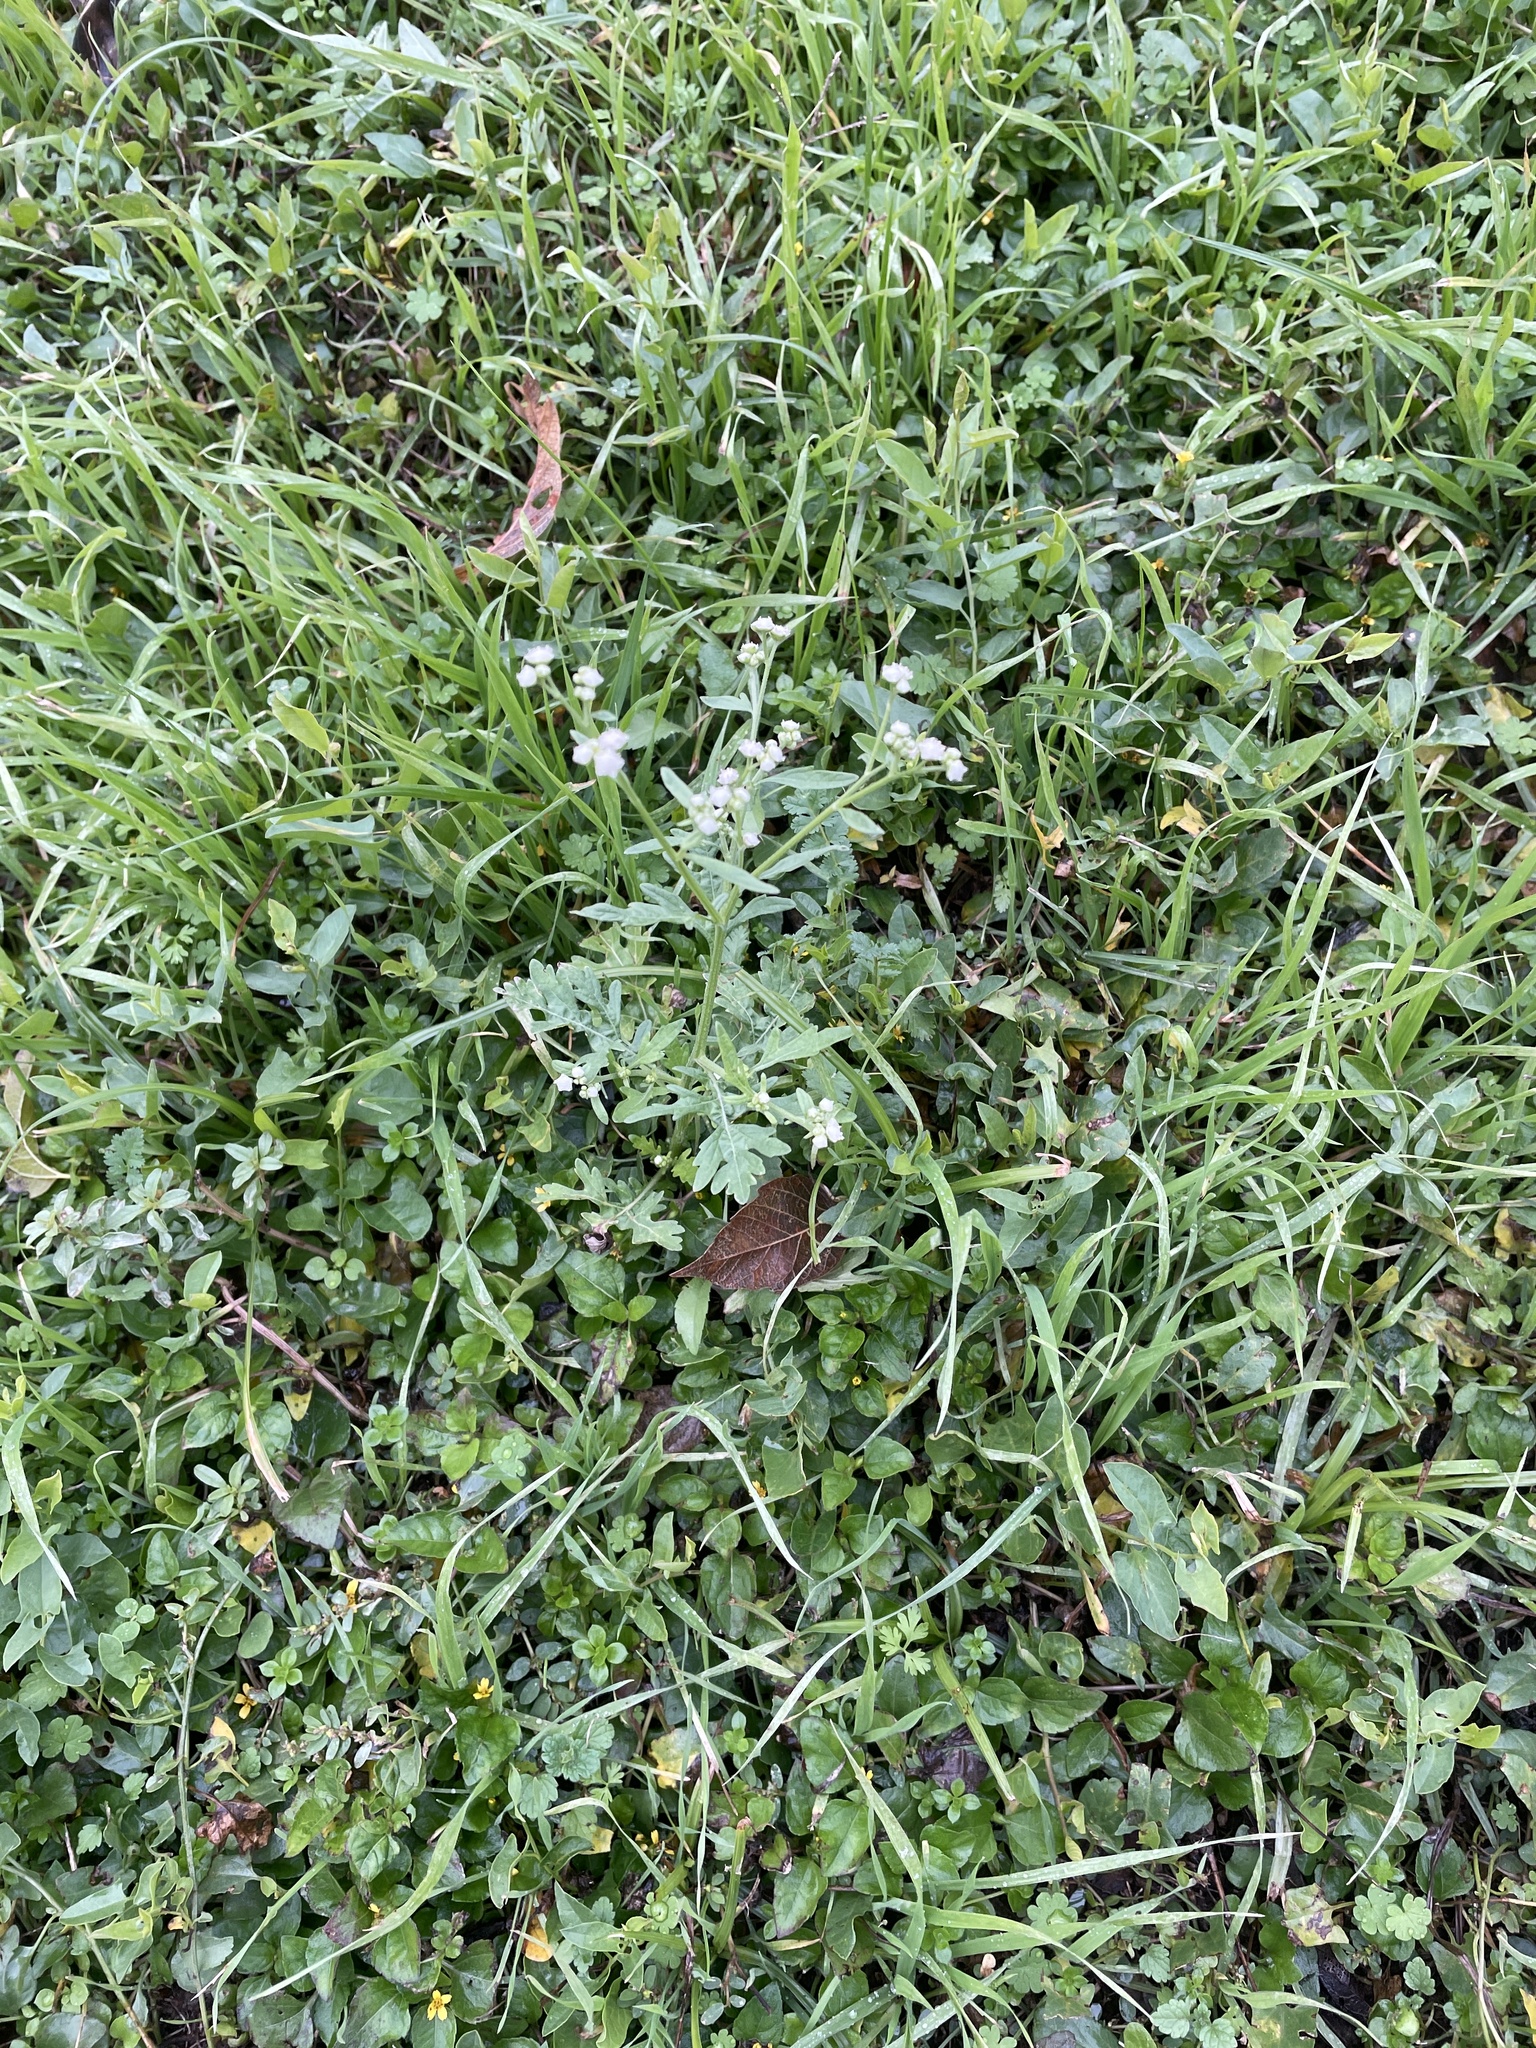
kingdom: Plantae
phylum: Tracheophyta
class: Magnoliopsida
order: Asterales
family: Asteraceae
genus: Parthenium
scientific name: Parthenium hysterophorus
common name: Santa maria feverfew
